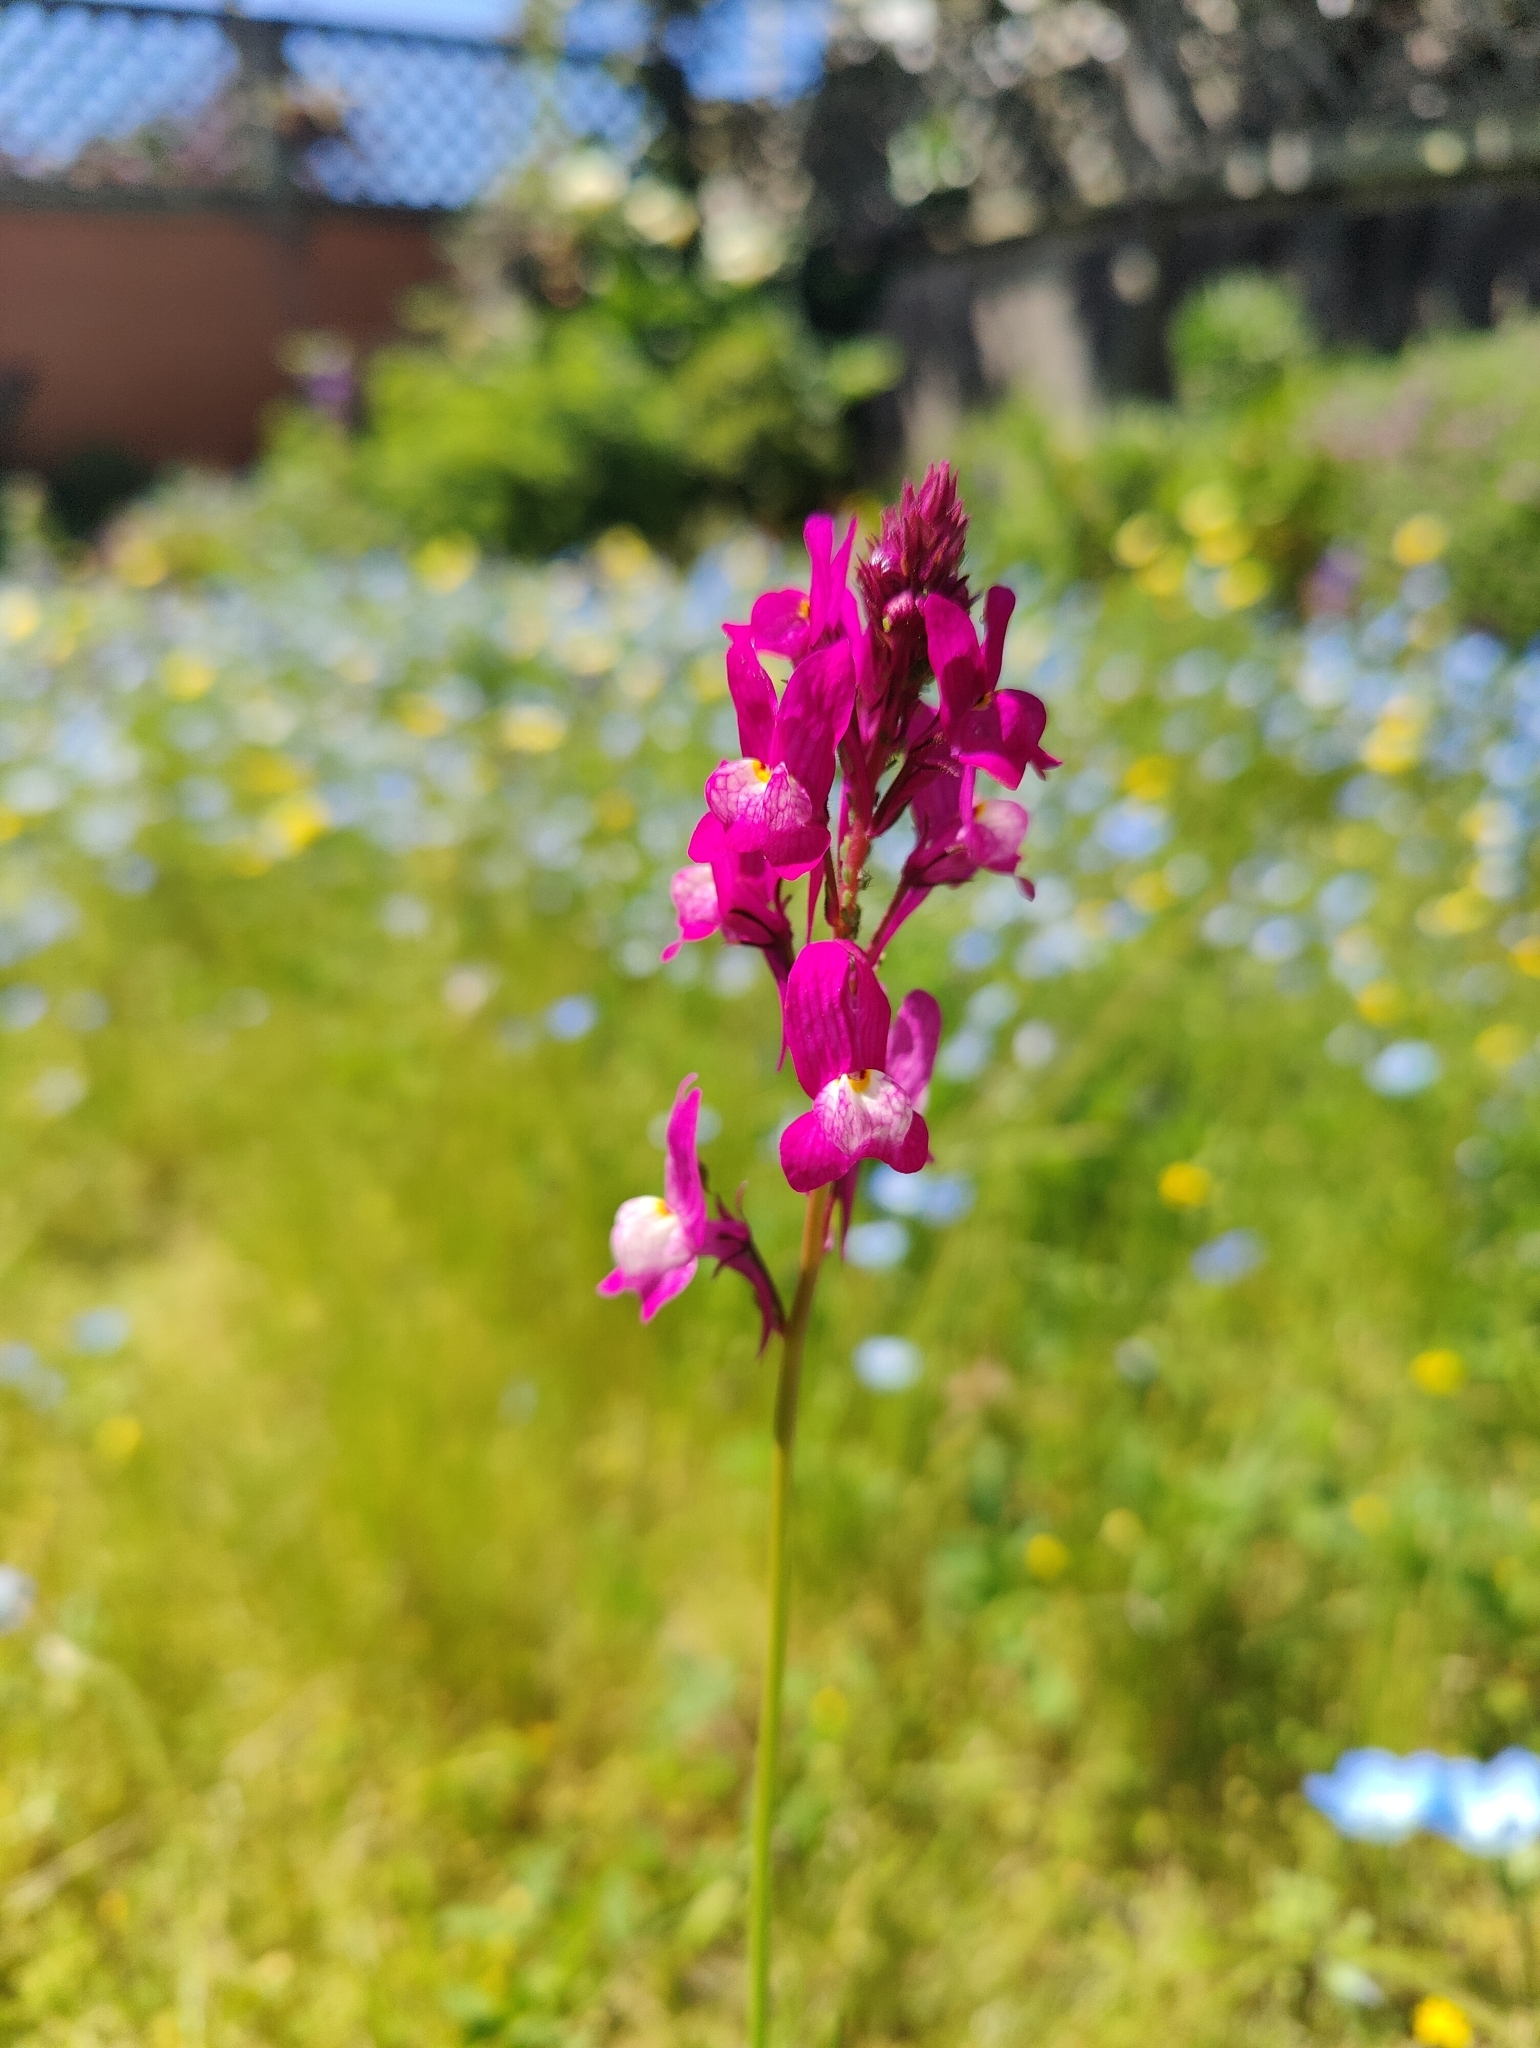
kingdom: Plantae
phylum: Tracheophyta
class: Magnoliopsida
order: Lamiales
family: Plantaginaceae
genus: Linaria
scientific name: Linaria maroccana
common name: Moroccan toadflax
